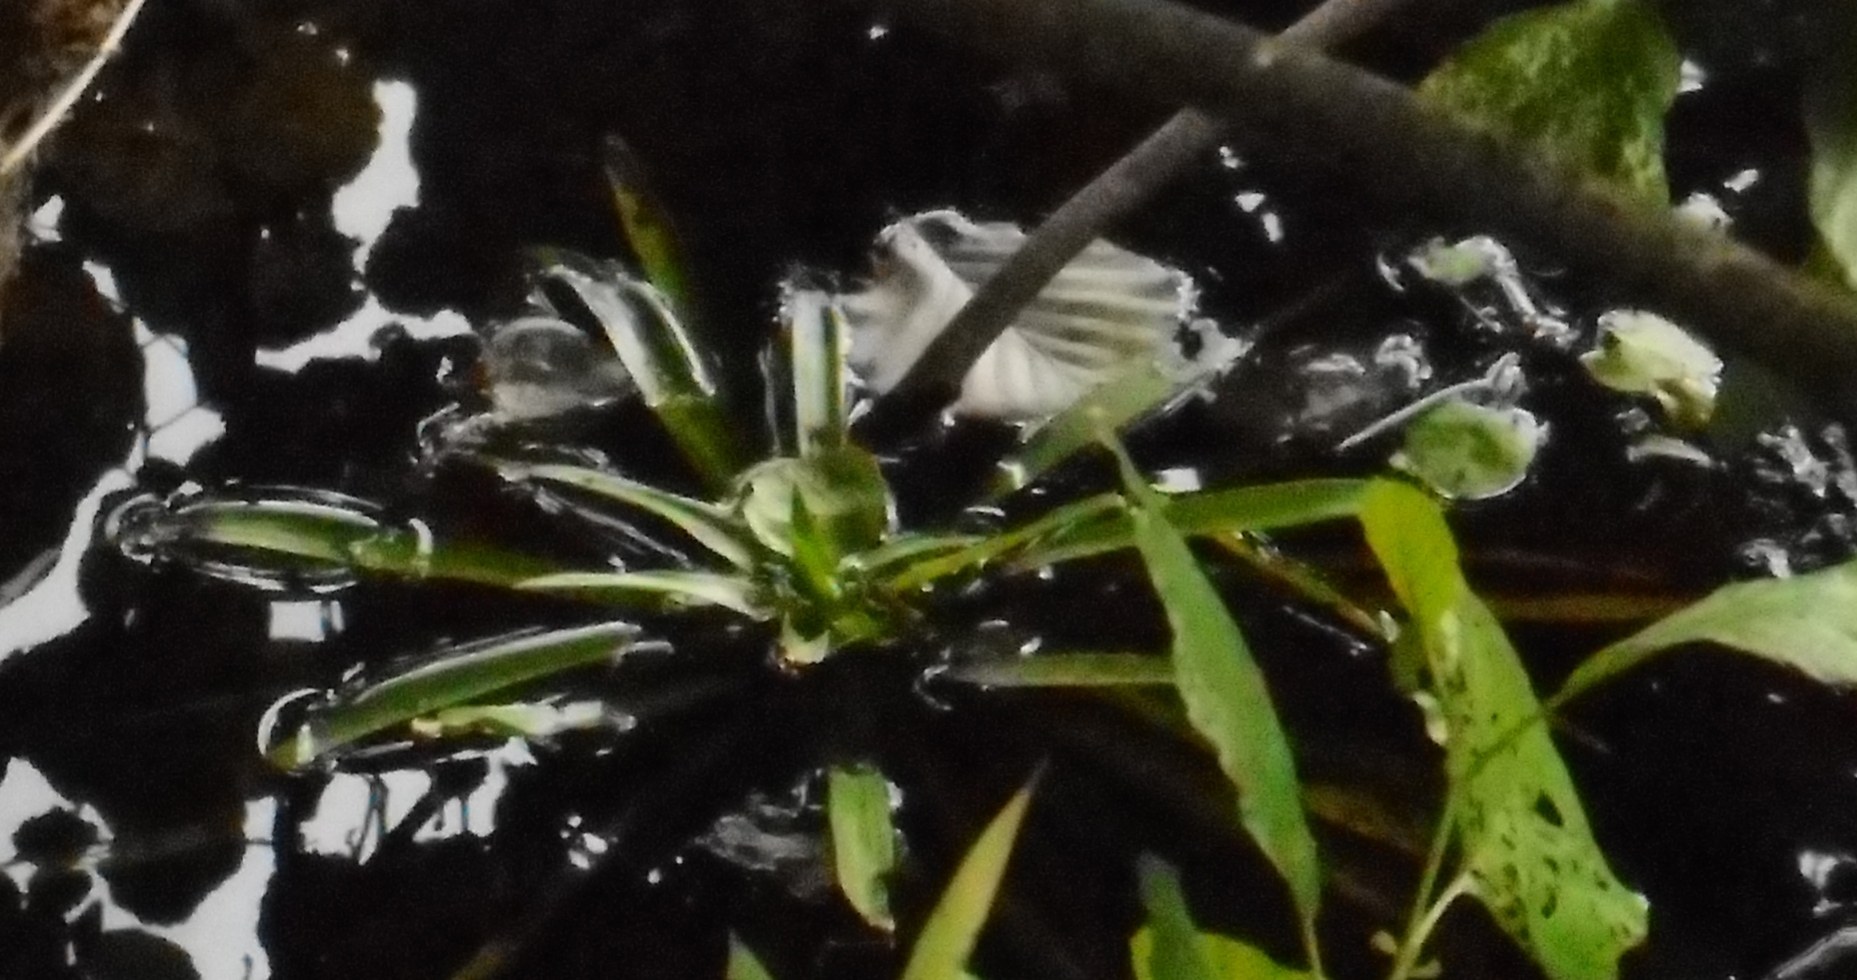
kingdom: Plantae
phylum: Tracheophyta
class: Liliopsida
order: Alismatales
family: Hydrocharitaceae
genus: Stratiotes
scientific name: Stratiotes aloides
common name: Water-soldier
